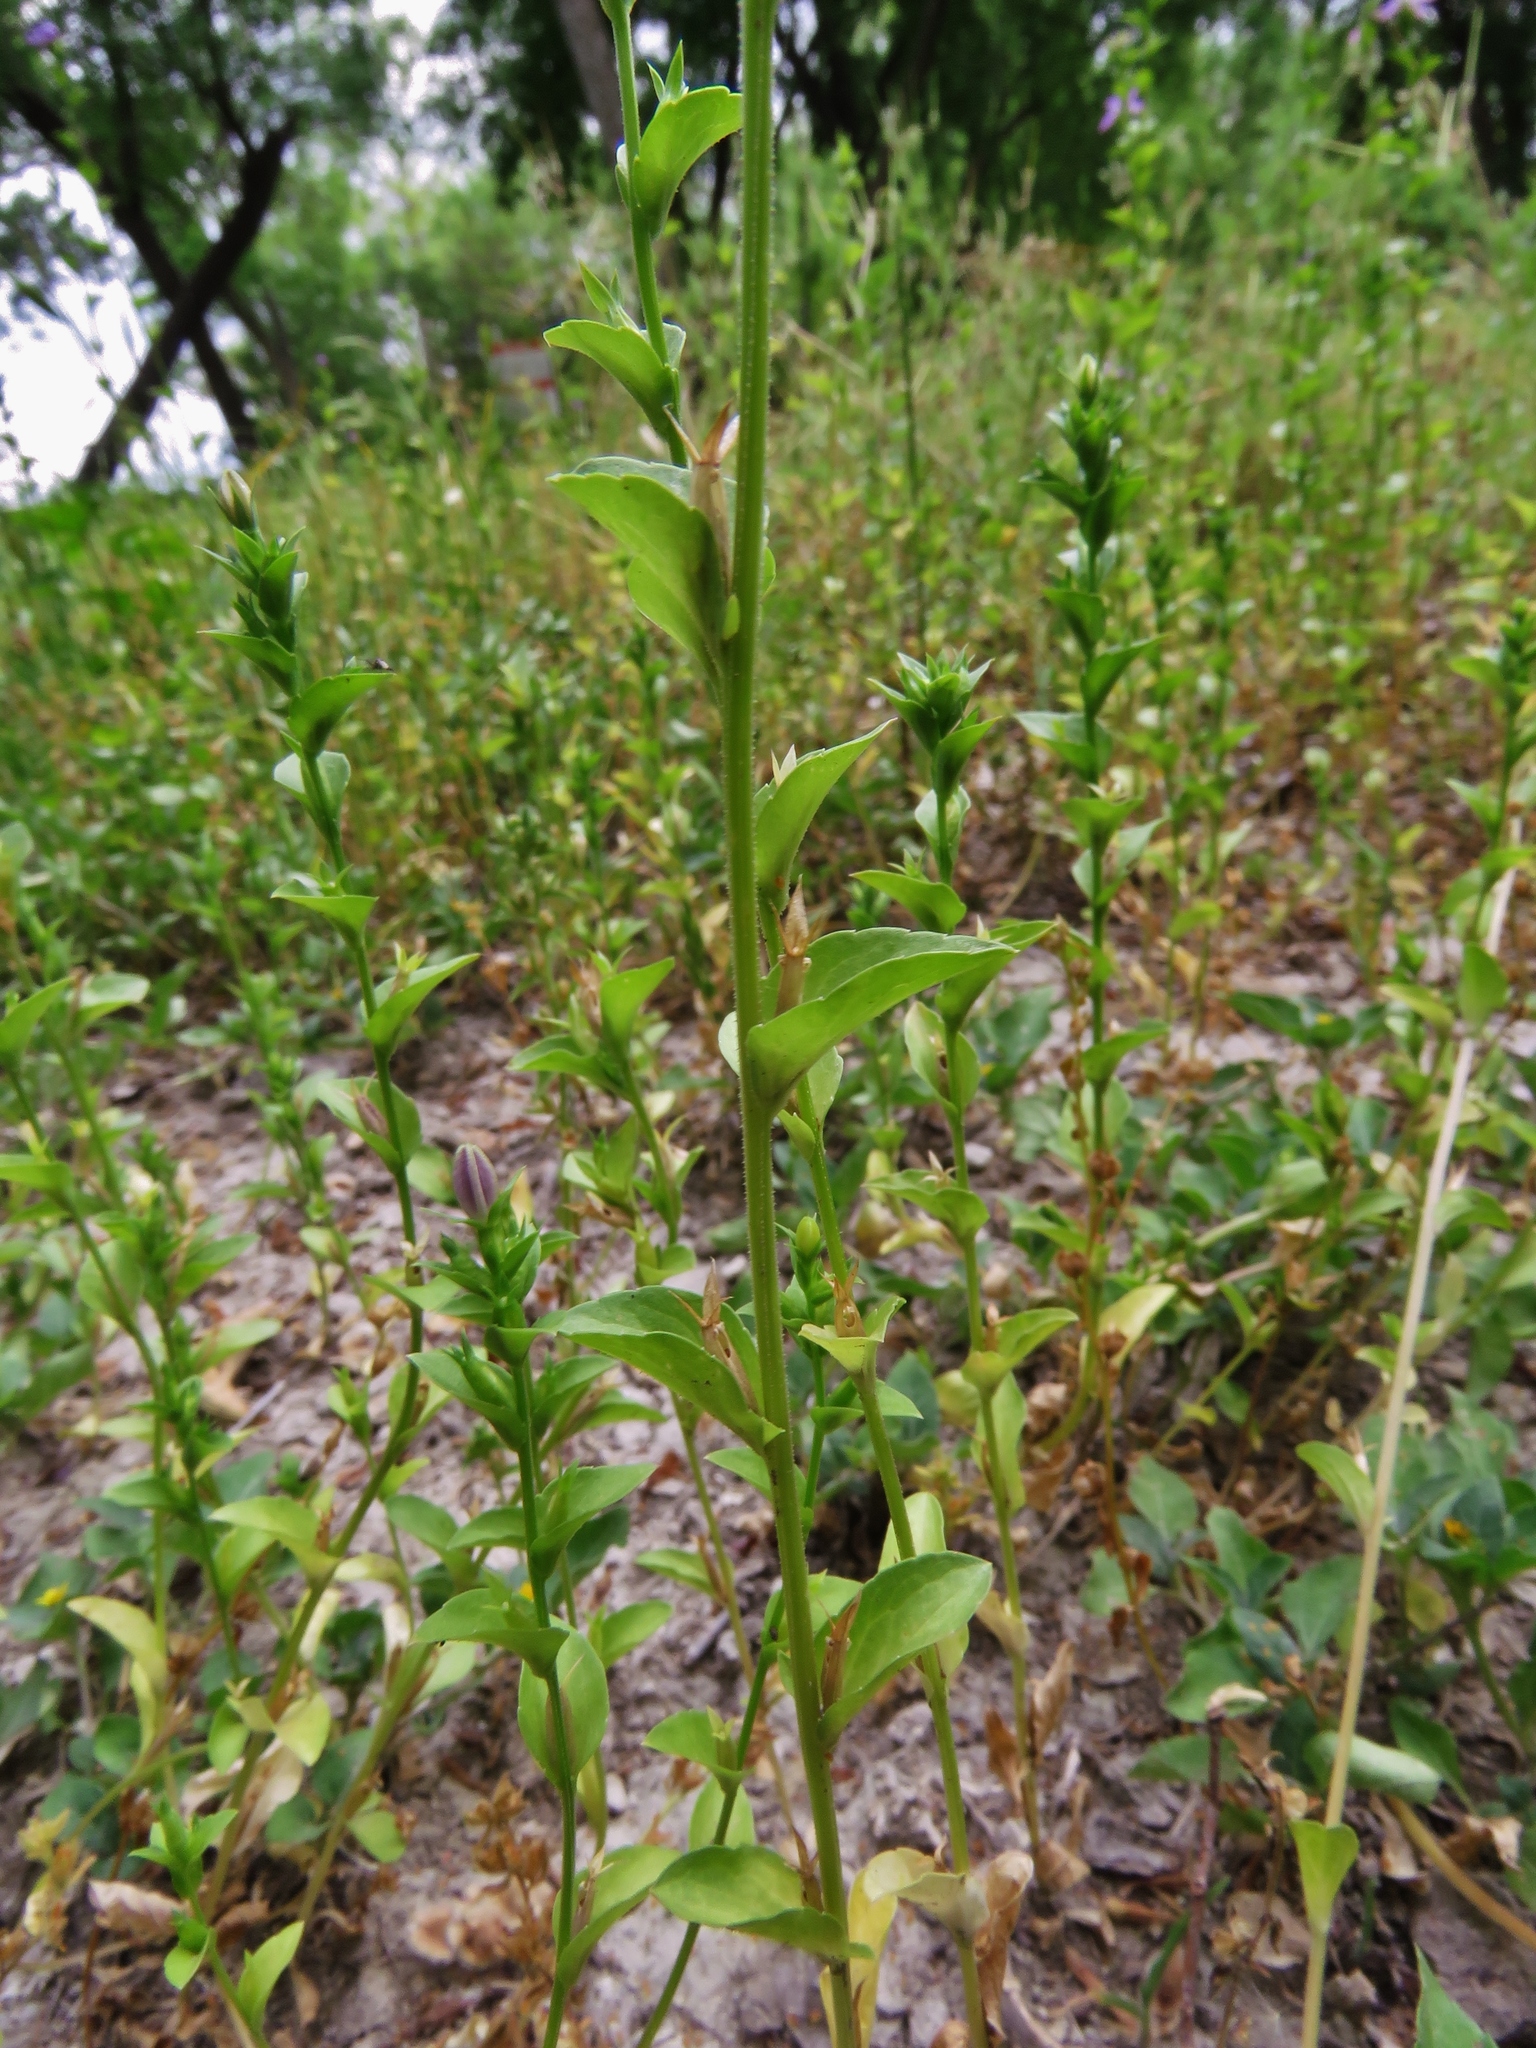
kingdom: Plantae
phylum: Tracheophyta
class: Magnoliopsida
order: Asterales
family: Campanulaceae
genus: Triodanis
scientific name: Triodanis perfoliata
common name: Clasping venus' looking-glass
